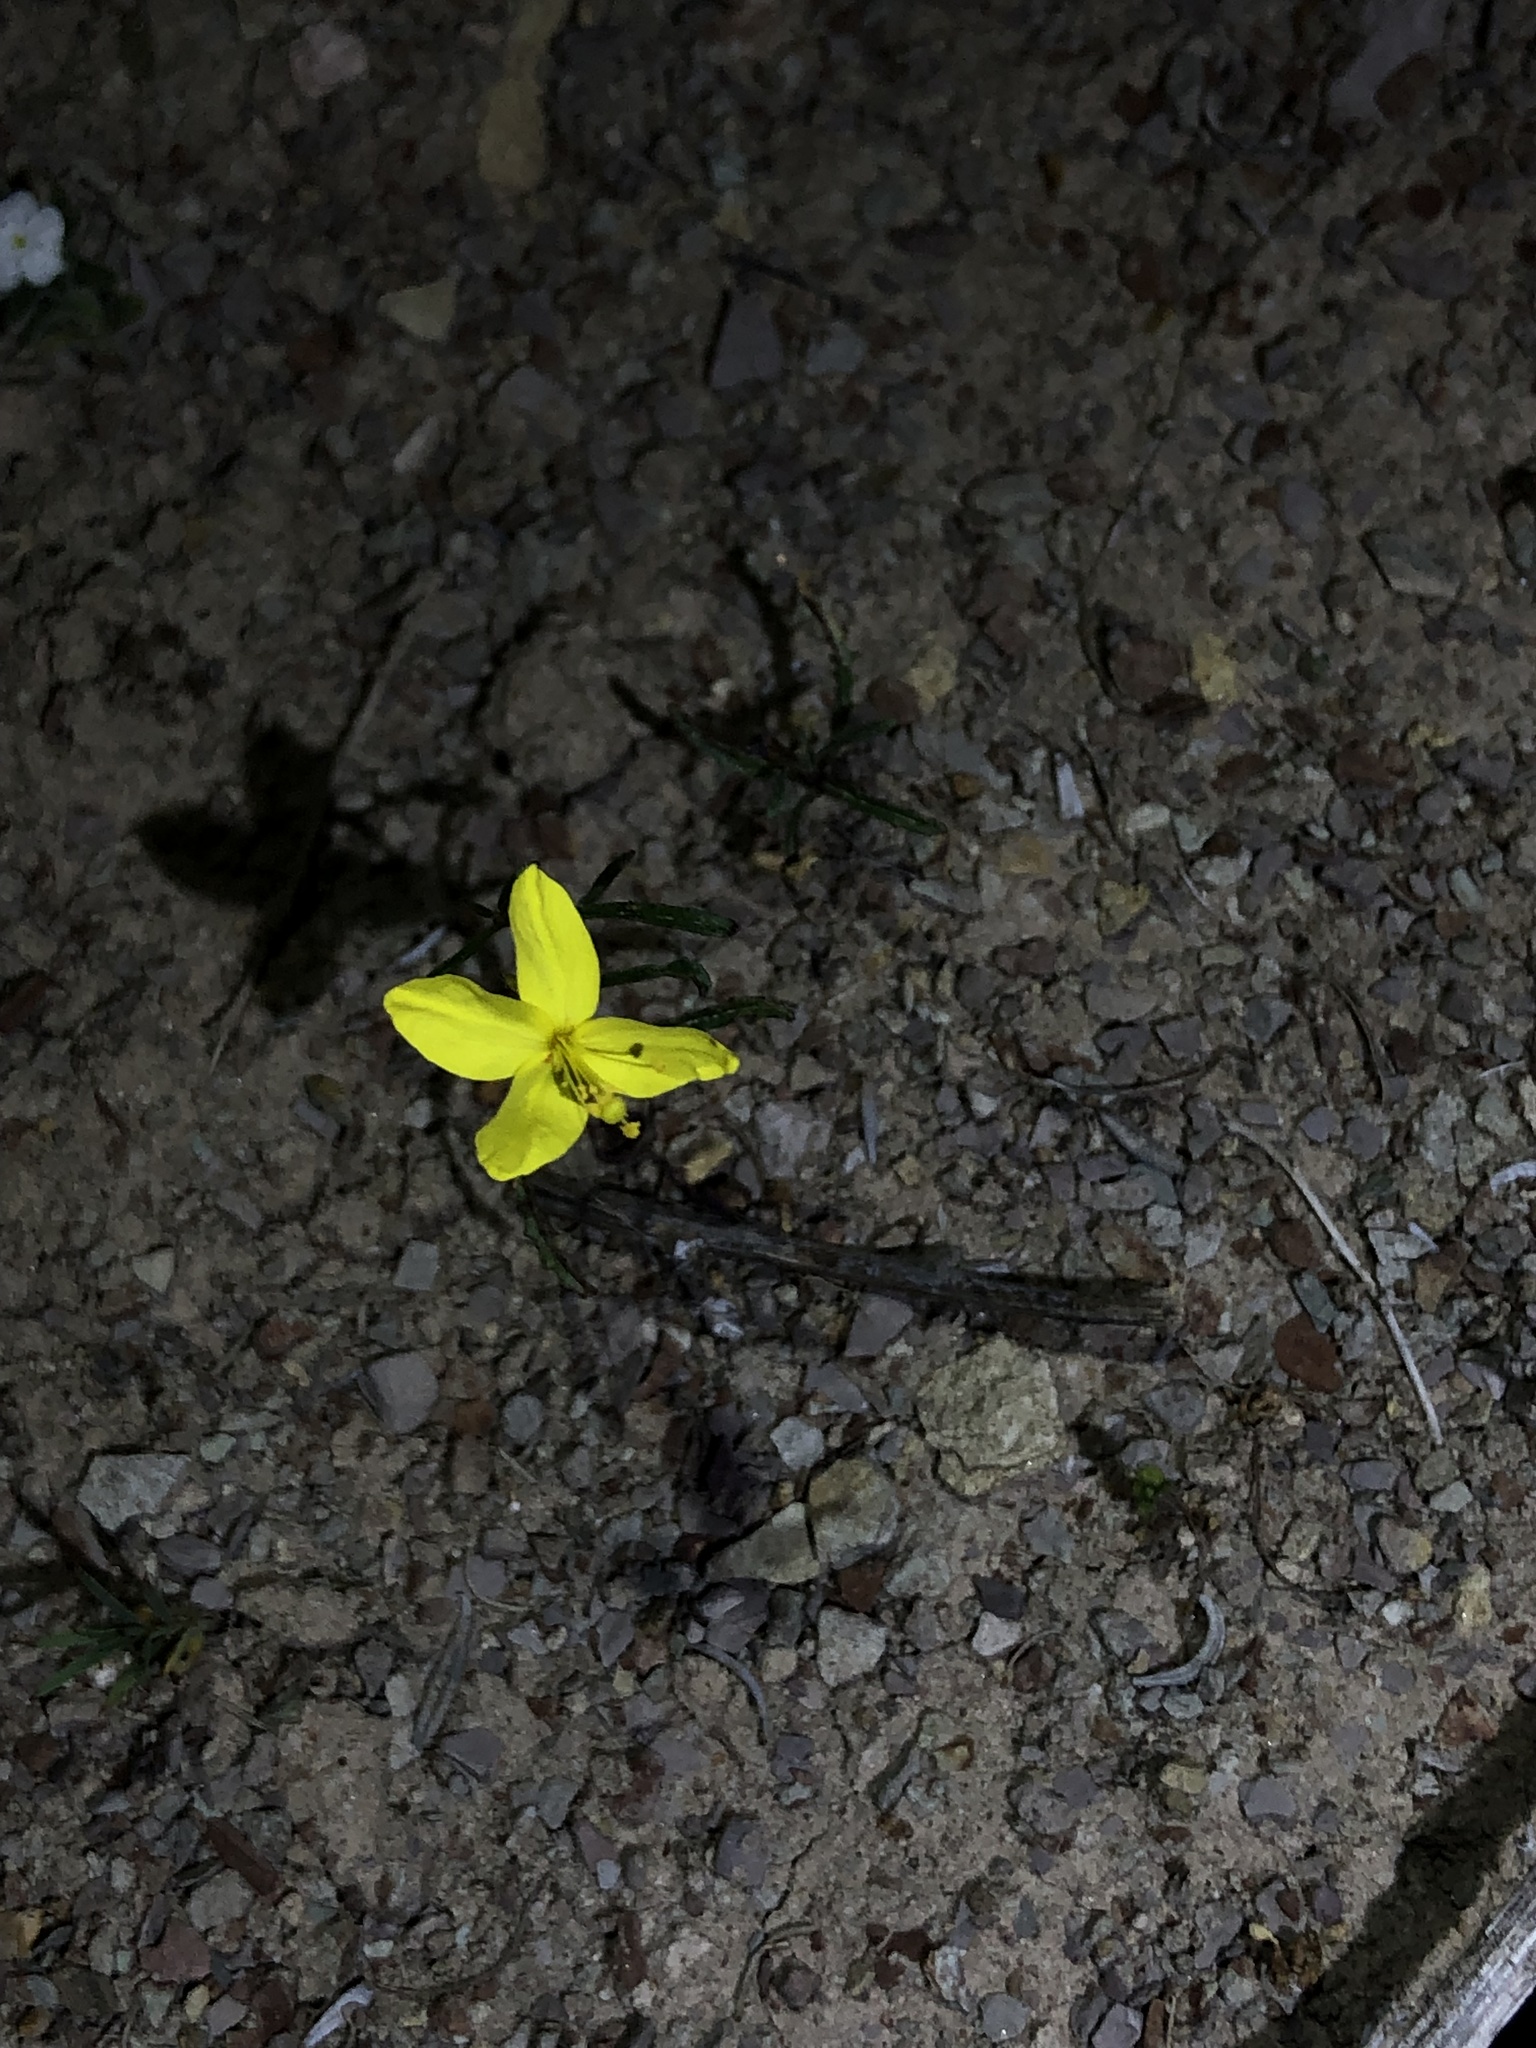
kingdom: Plantae
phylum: Tracheophyta
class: Magnoliopsida
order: Myrtales
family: Onagraceae
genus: Eulobus
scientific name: Eulobus californicus
